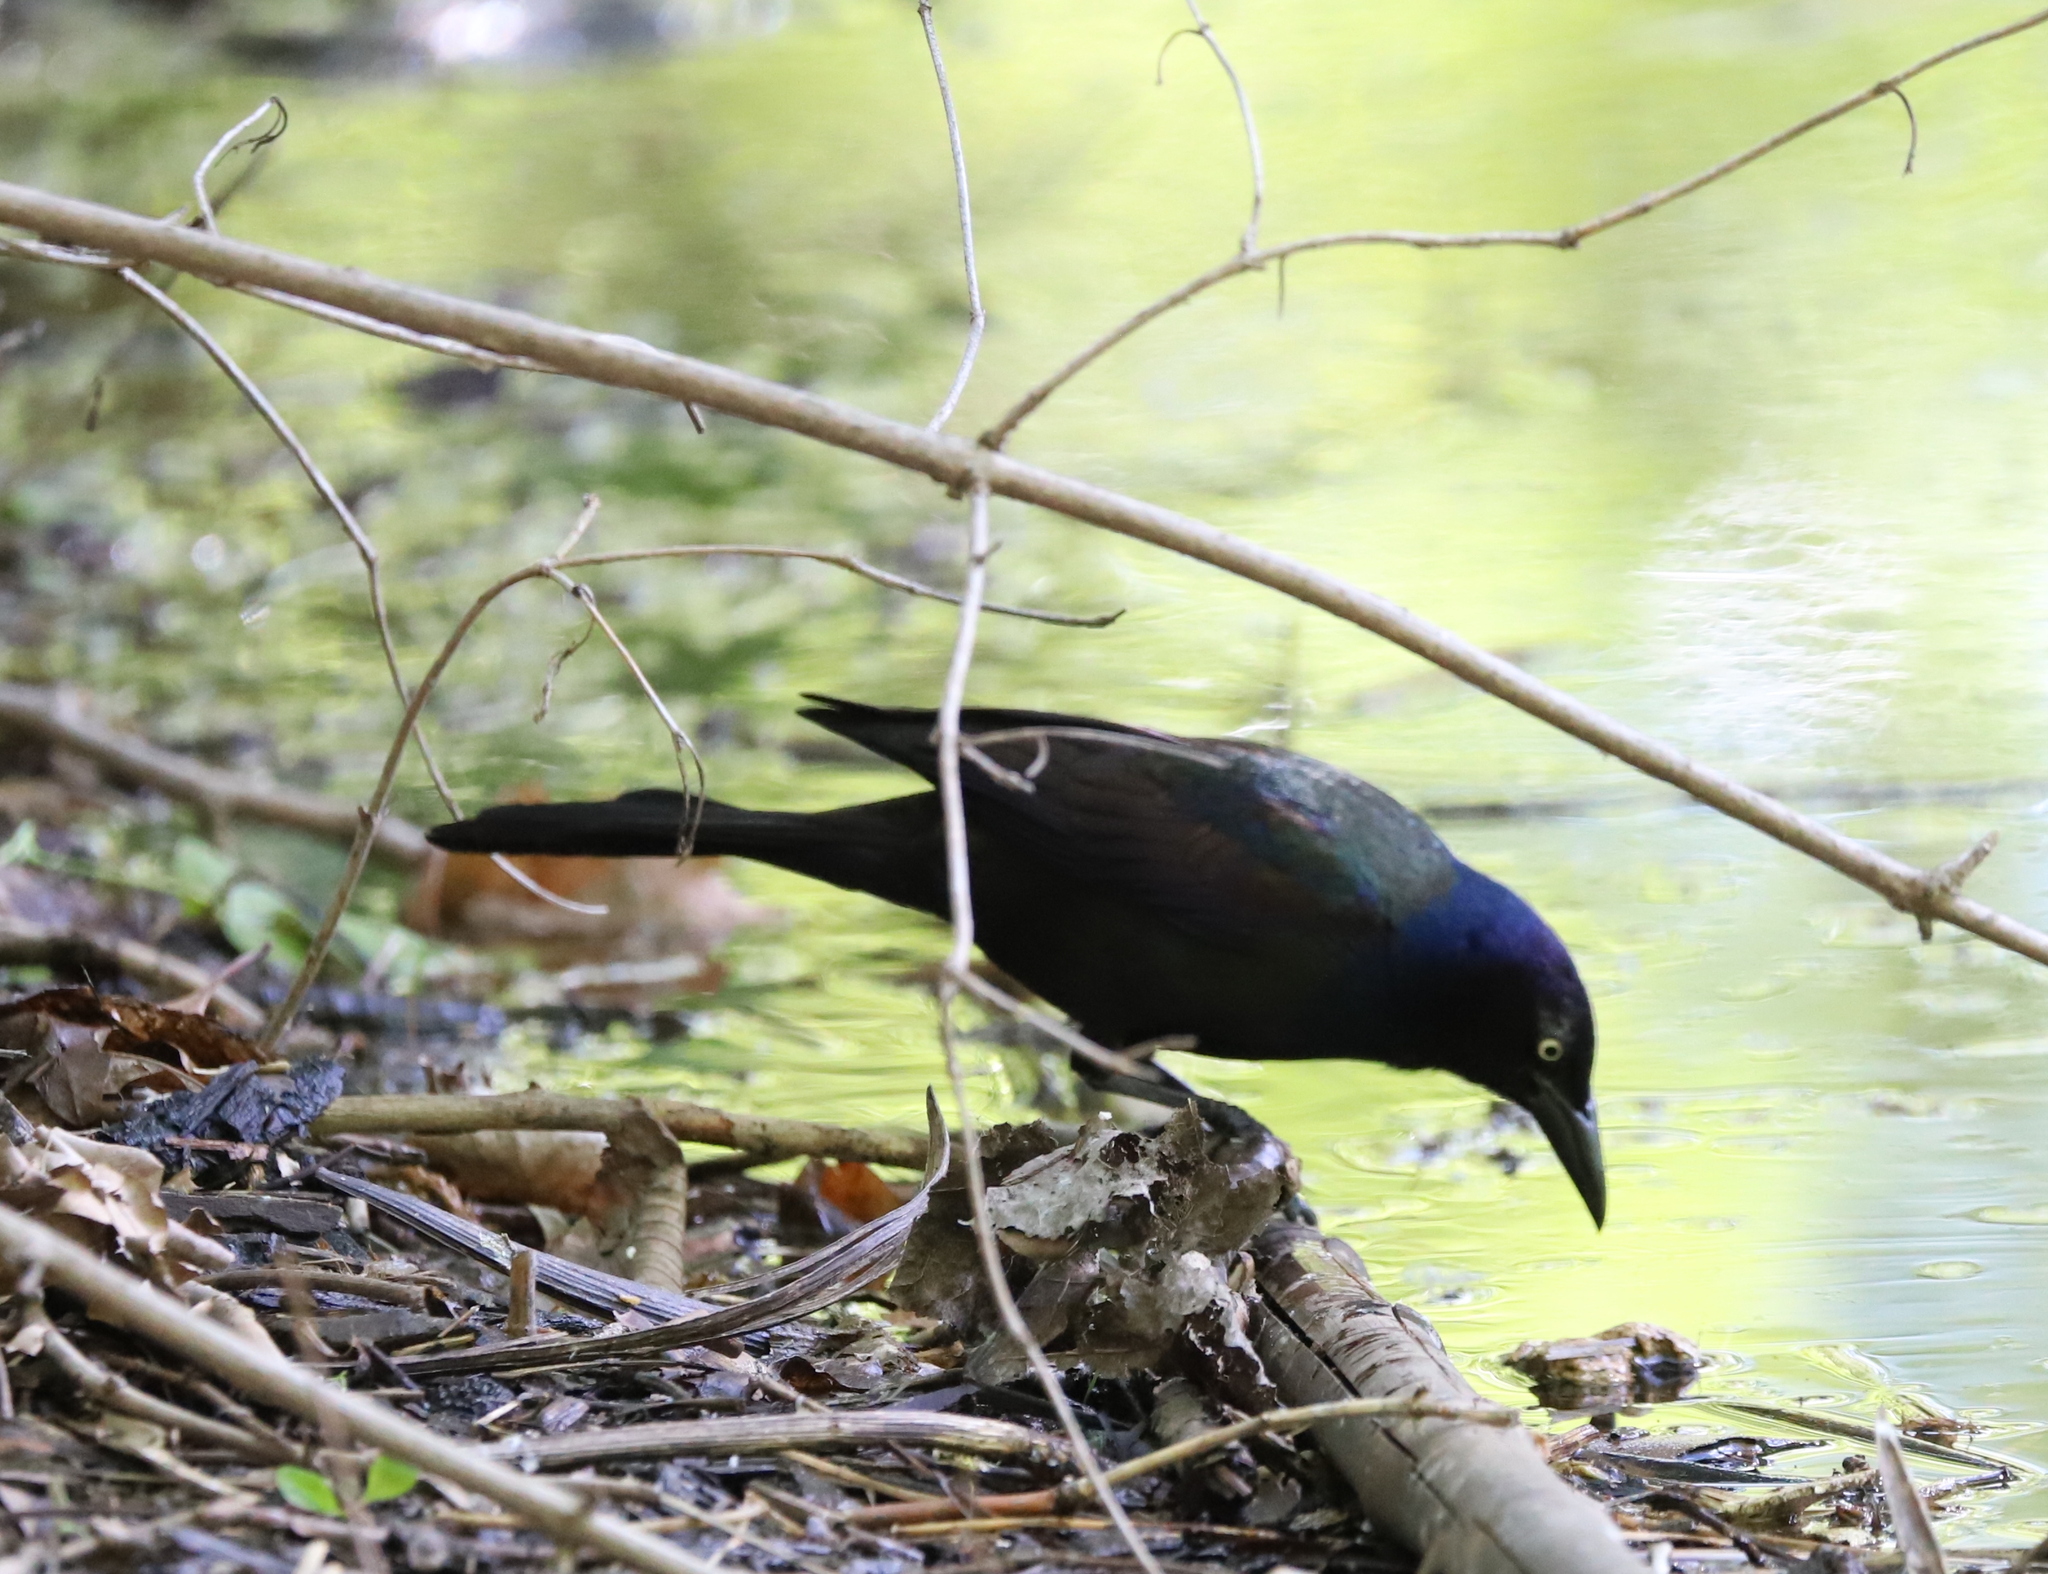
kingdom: Animalia
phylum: Chordata
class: Aves
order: Passeriformes
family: Icteridae
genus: Quiscalus
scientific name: Quiscalus quiscula
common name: Common grackle
